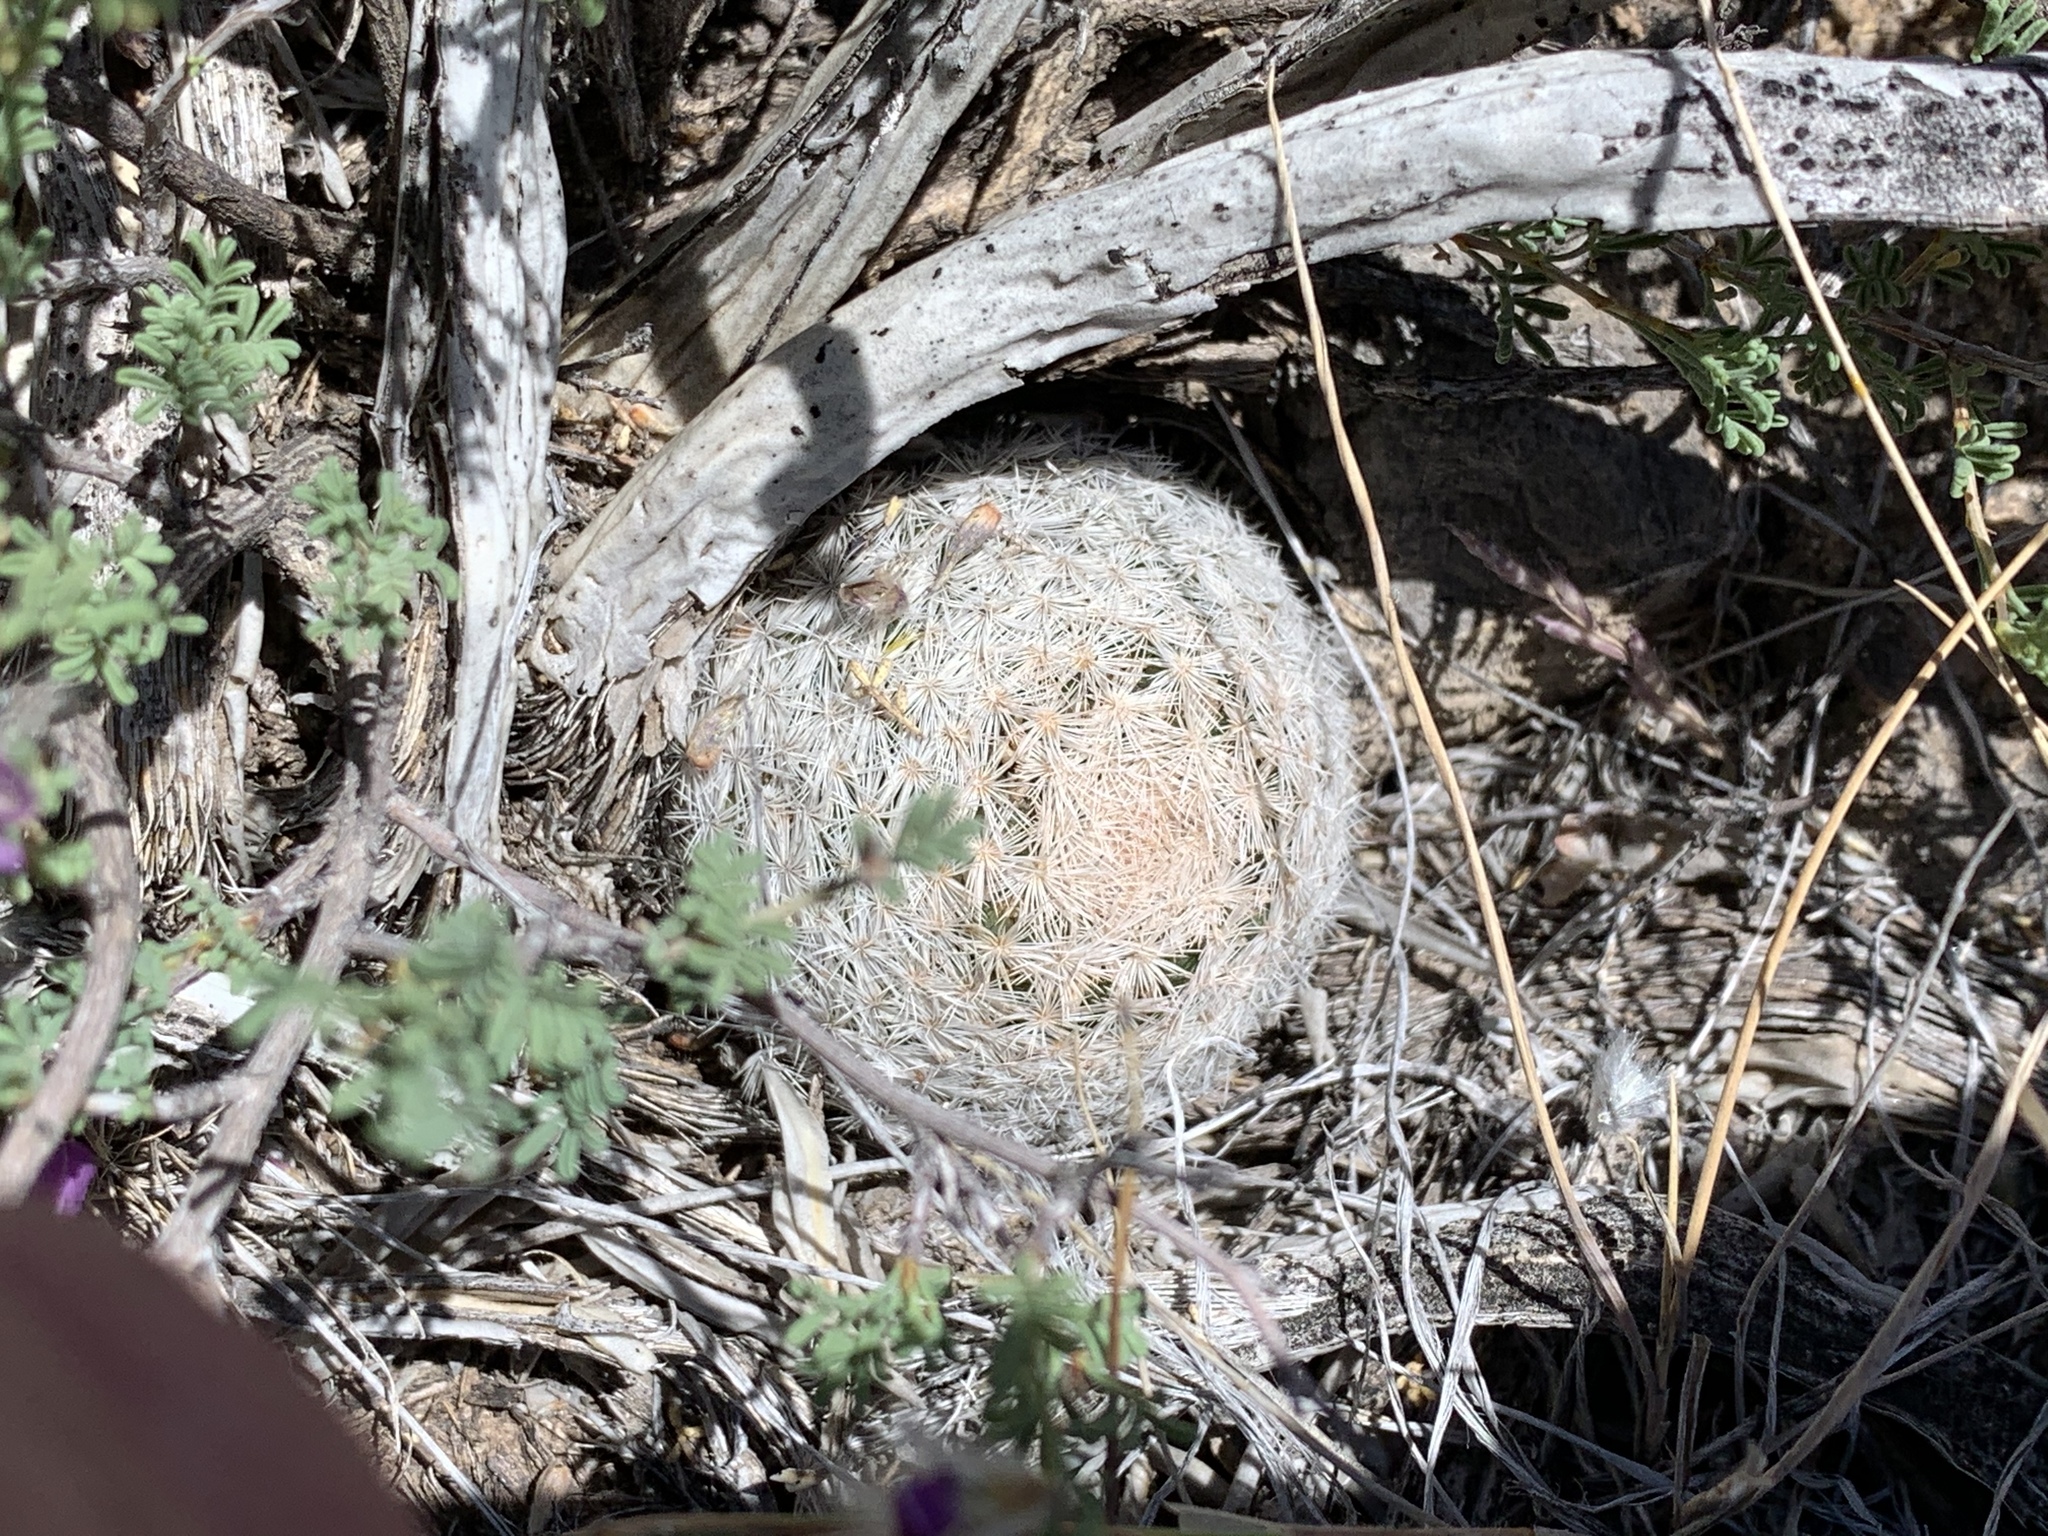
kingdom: Plantae
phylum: Tracheophyta
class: Magnoliopsida
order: Caryophyllales
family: Cactaceae
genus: Mammillaria
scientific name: Mammillaria lasiacantha
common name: Lace-spine nipple cactus
